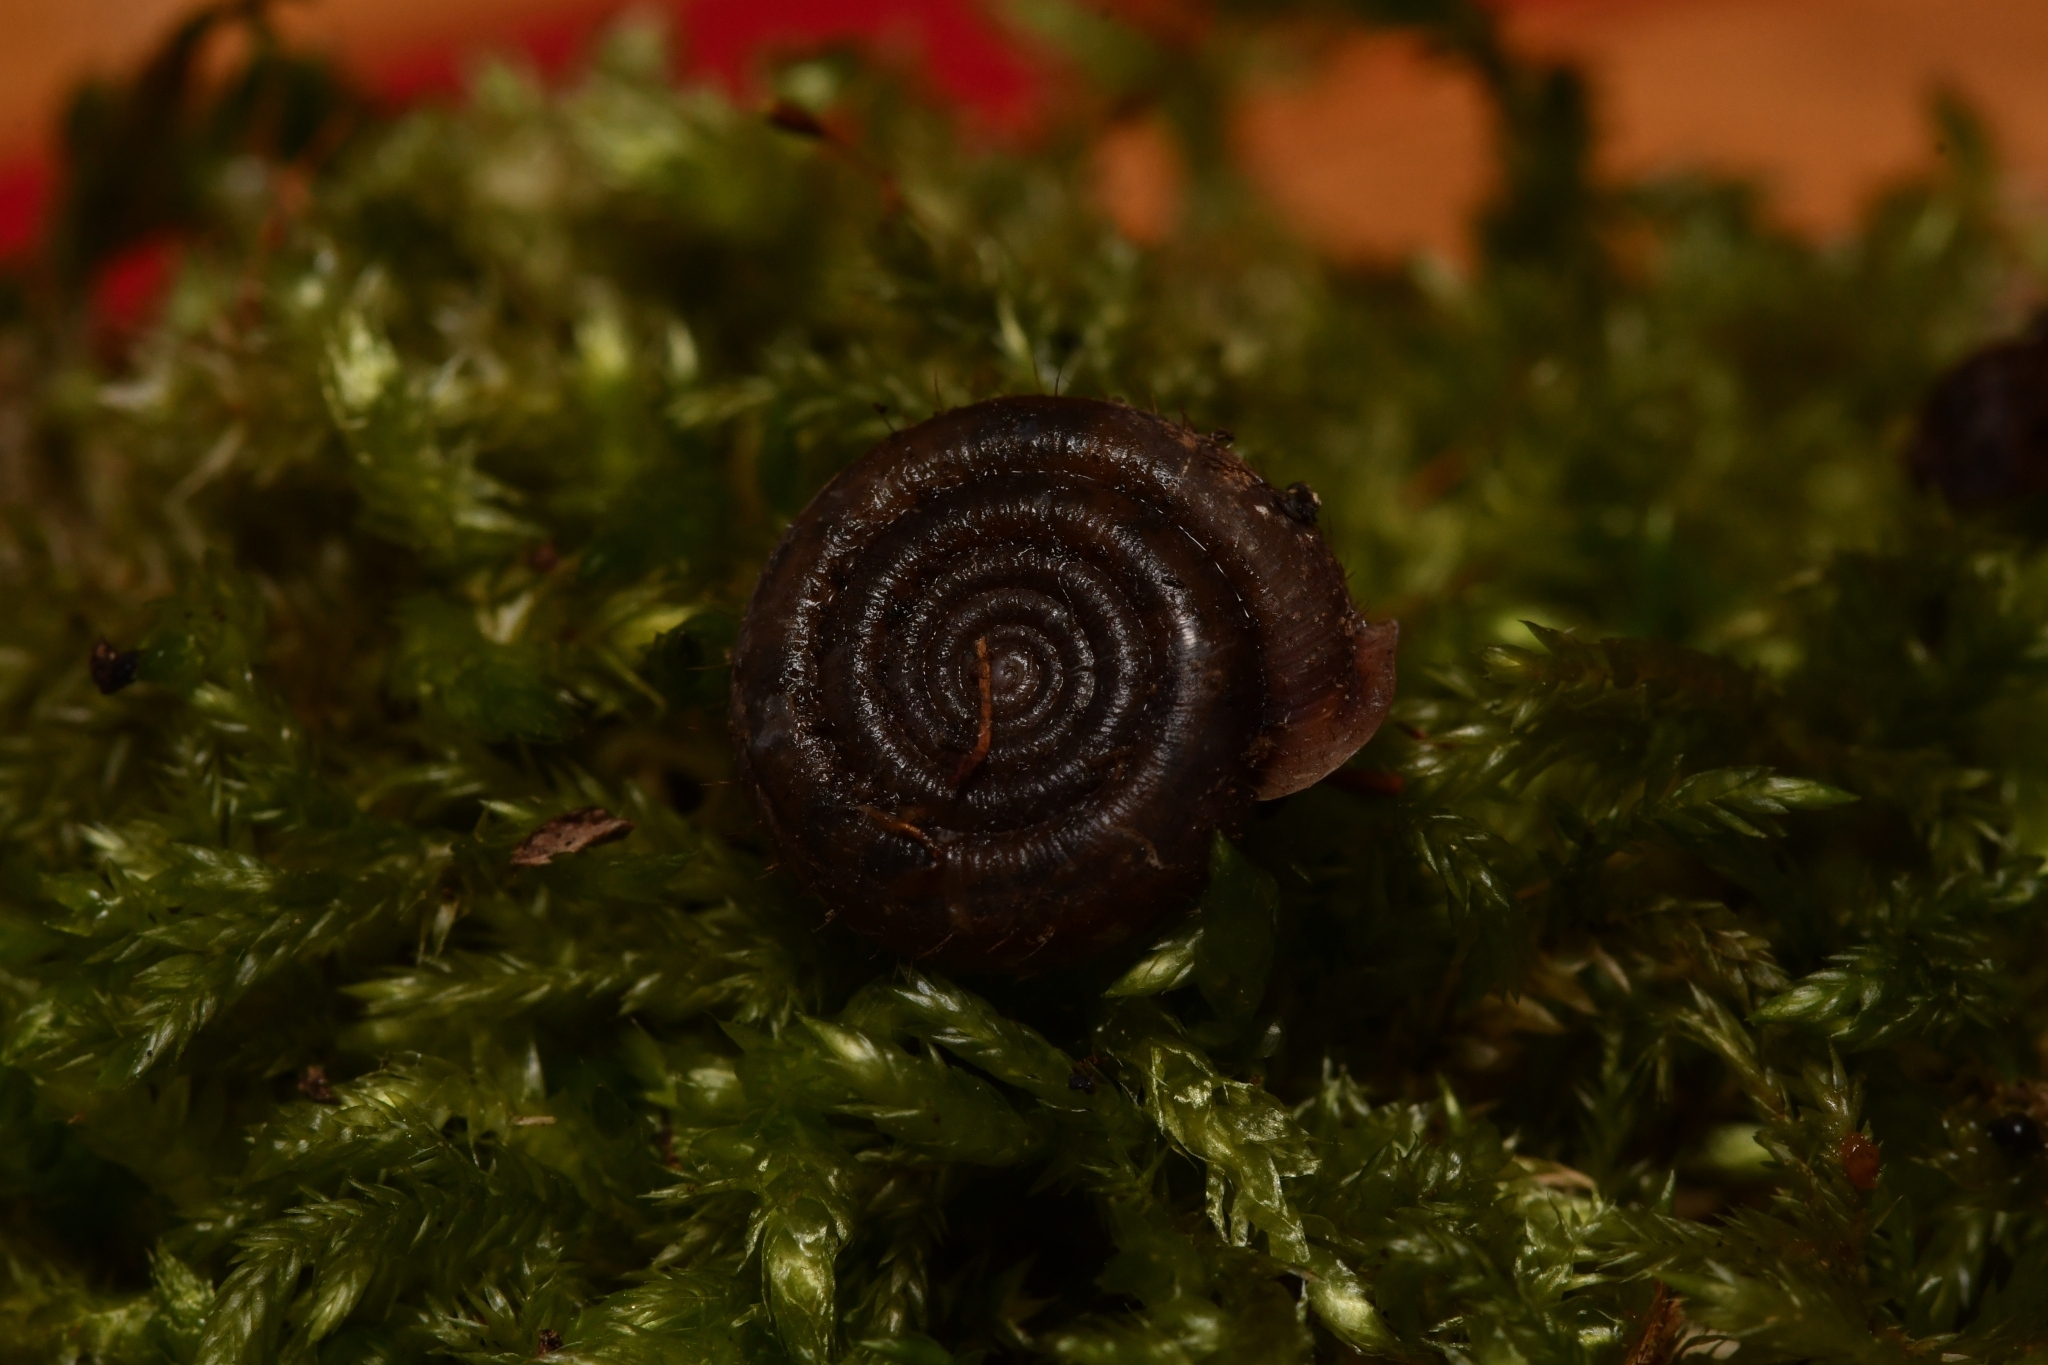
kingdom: Animalia
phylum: Mollusca
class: Gastropoda
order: Stylommatophora
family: Helicodontidae
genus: Helicodonta
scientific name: Helicodonta obvoluta
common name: Cheese snail
